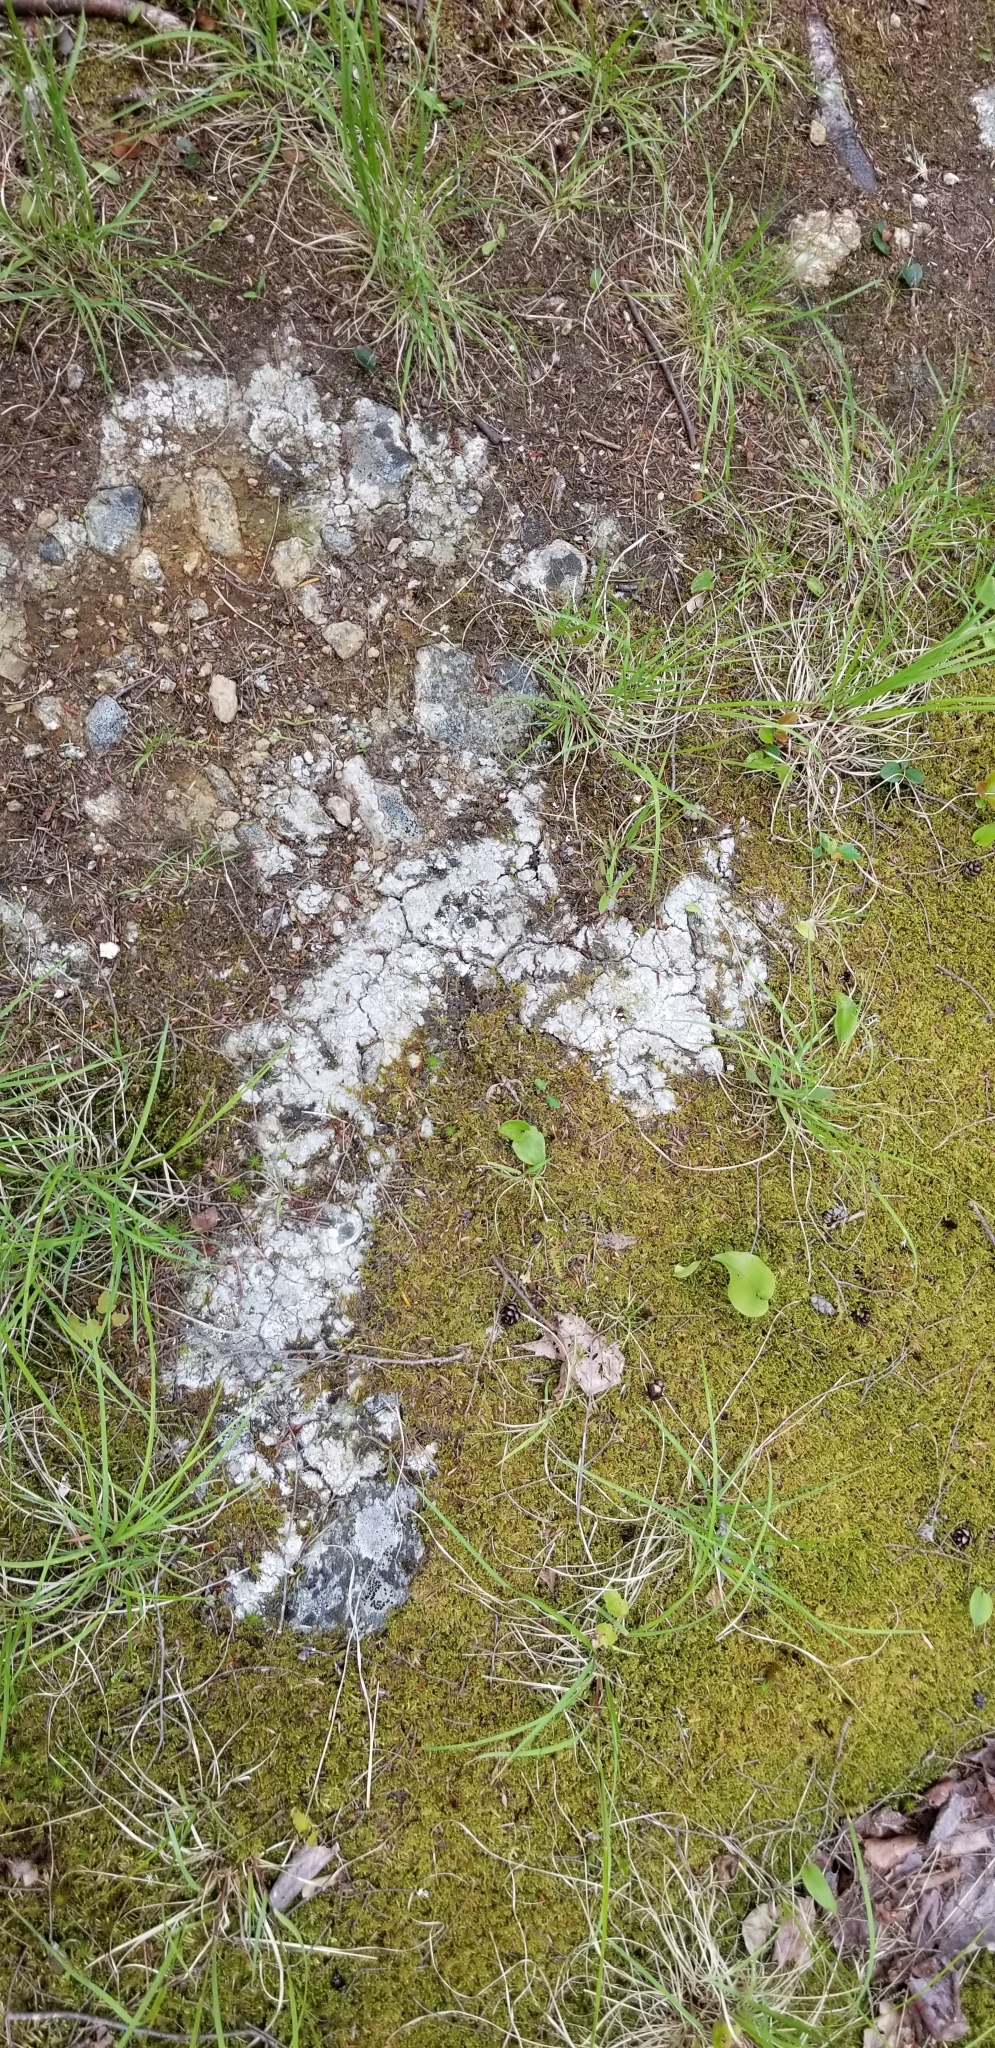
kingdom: Fungi
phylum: Ascomycota
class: Lecanoromycetes
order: Pertusariales
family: Icmadophilaceae
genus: Dibaeis
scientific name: Dibaeis baeomyces
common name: Pink earth lichen
